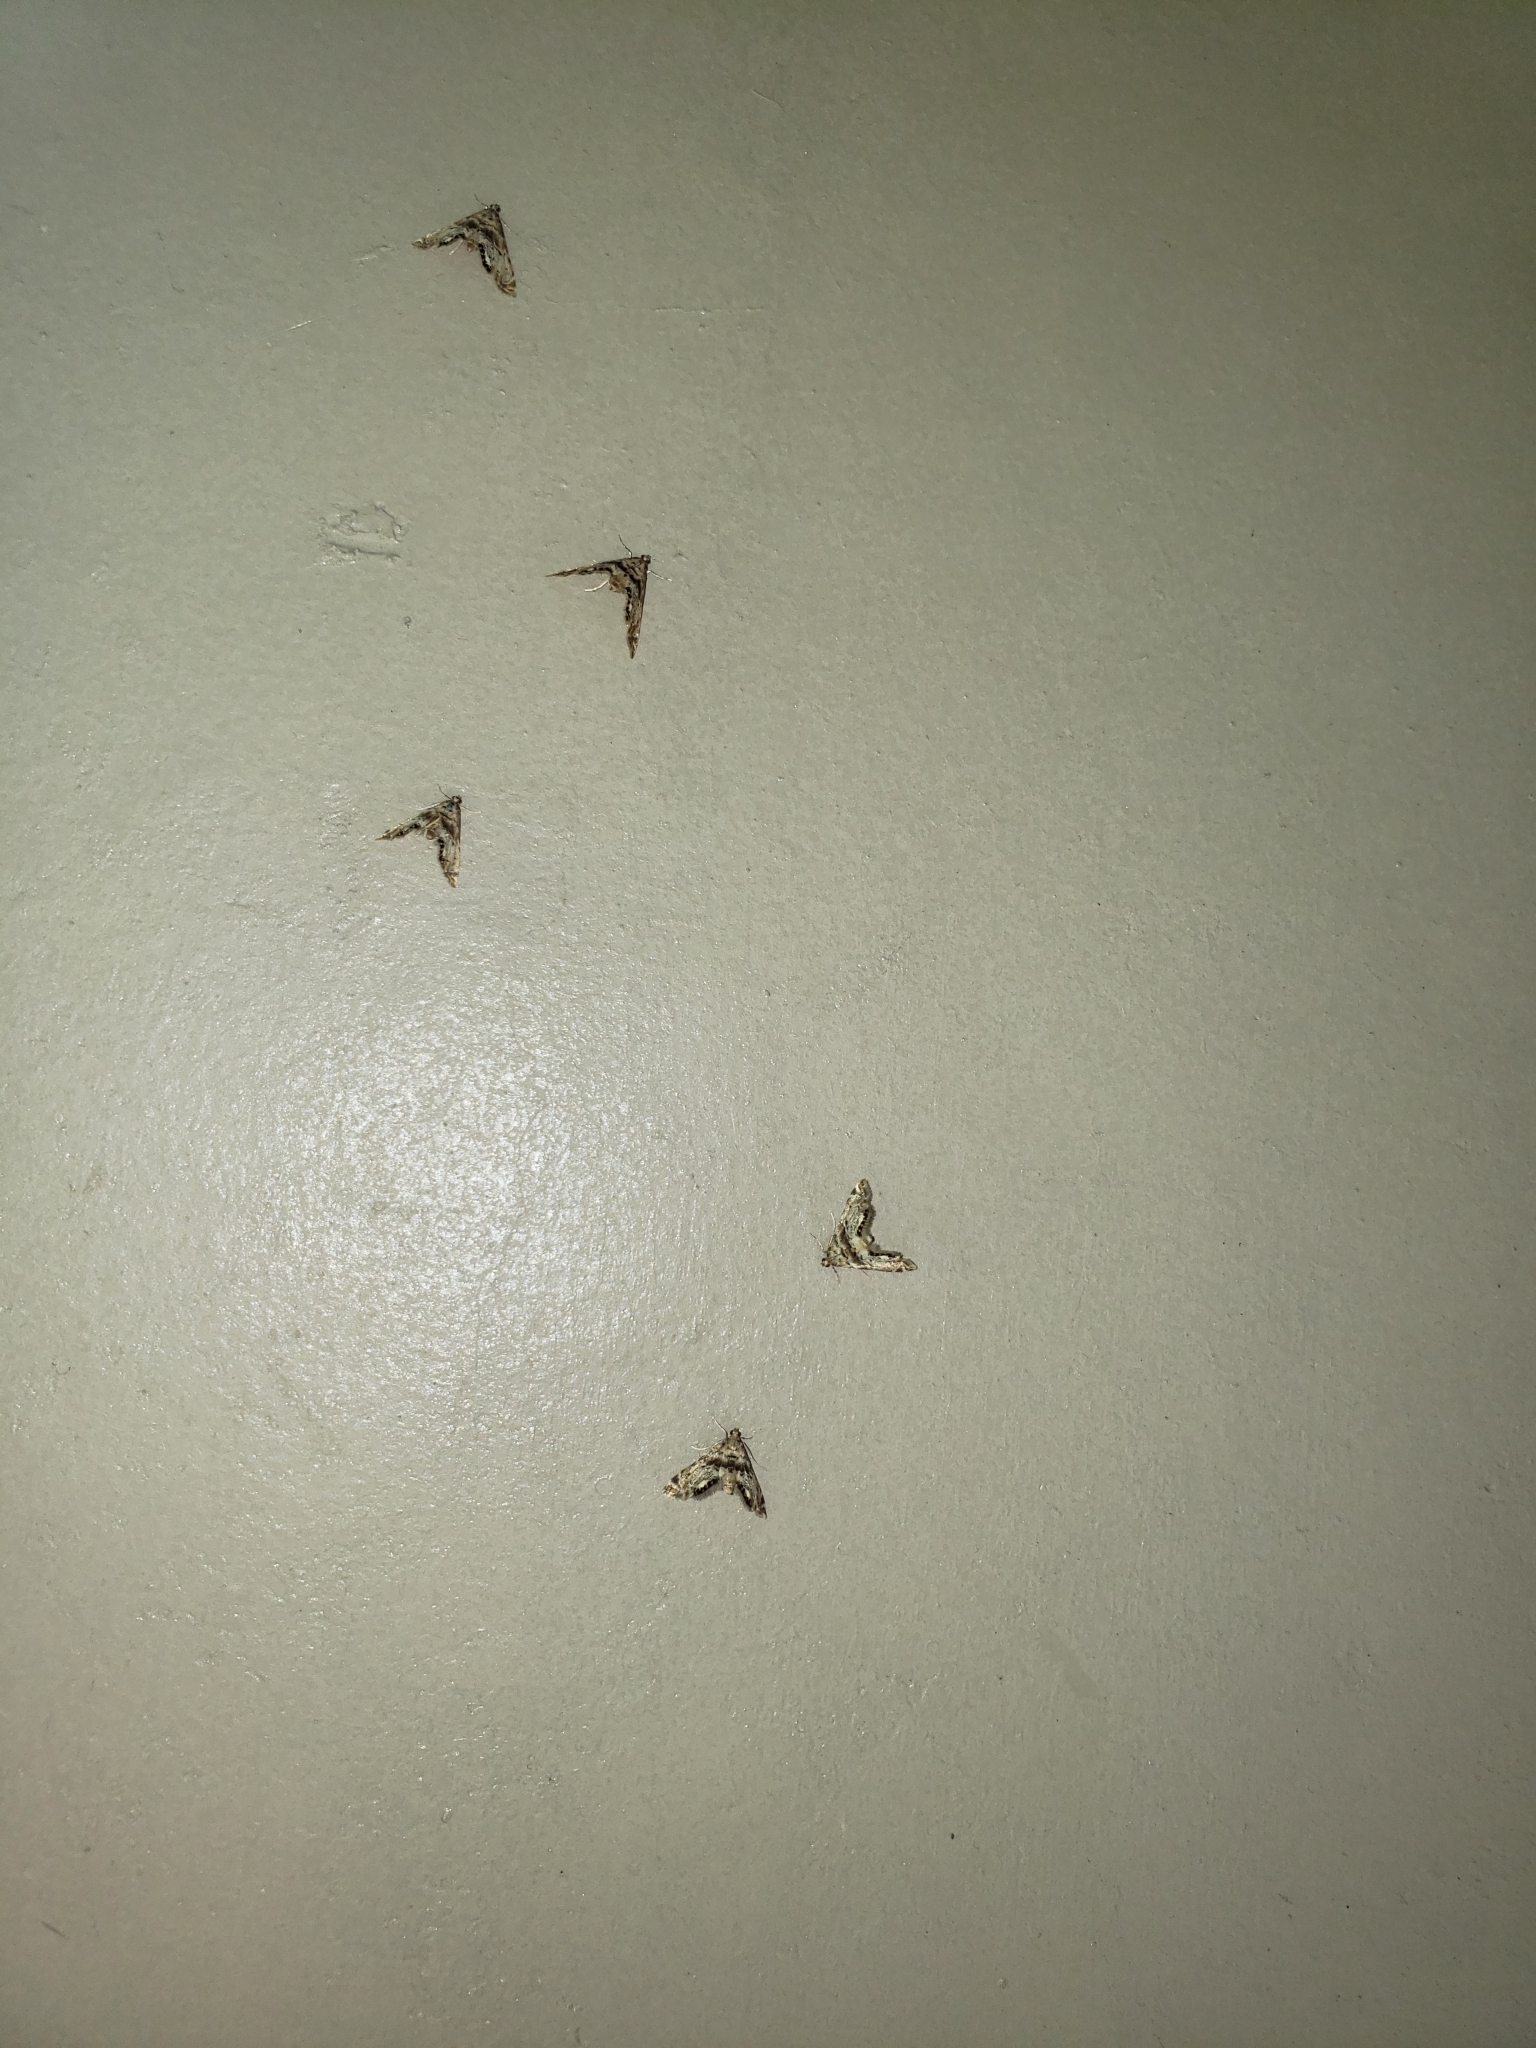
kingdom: Animalia
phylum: Arthropoda
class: Insecta
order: Lepidoptera
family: Crambidae
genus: Petrophila
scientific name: Petrophila fulicalis
